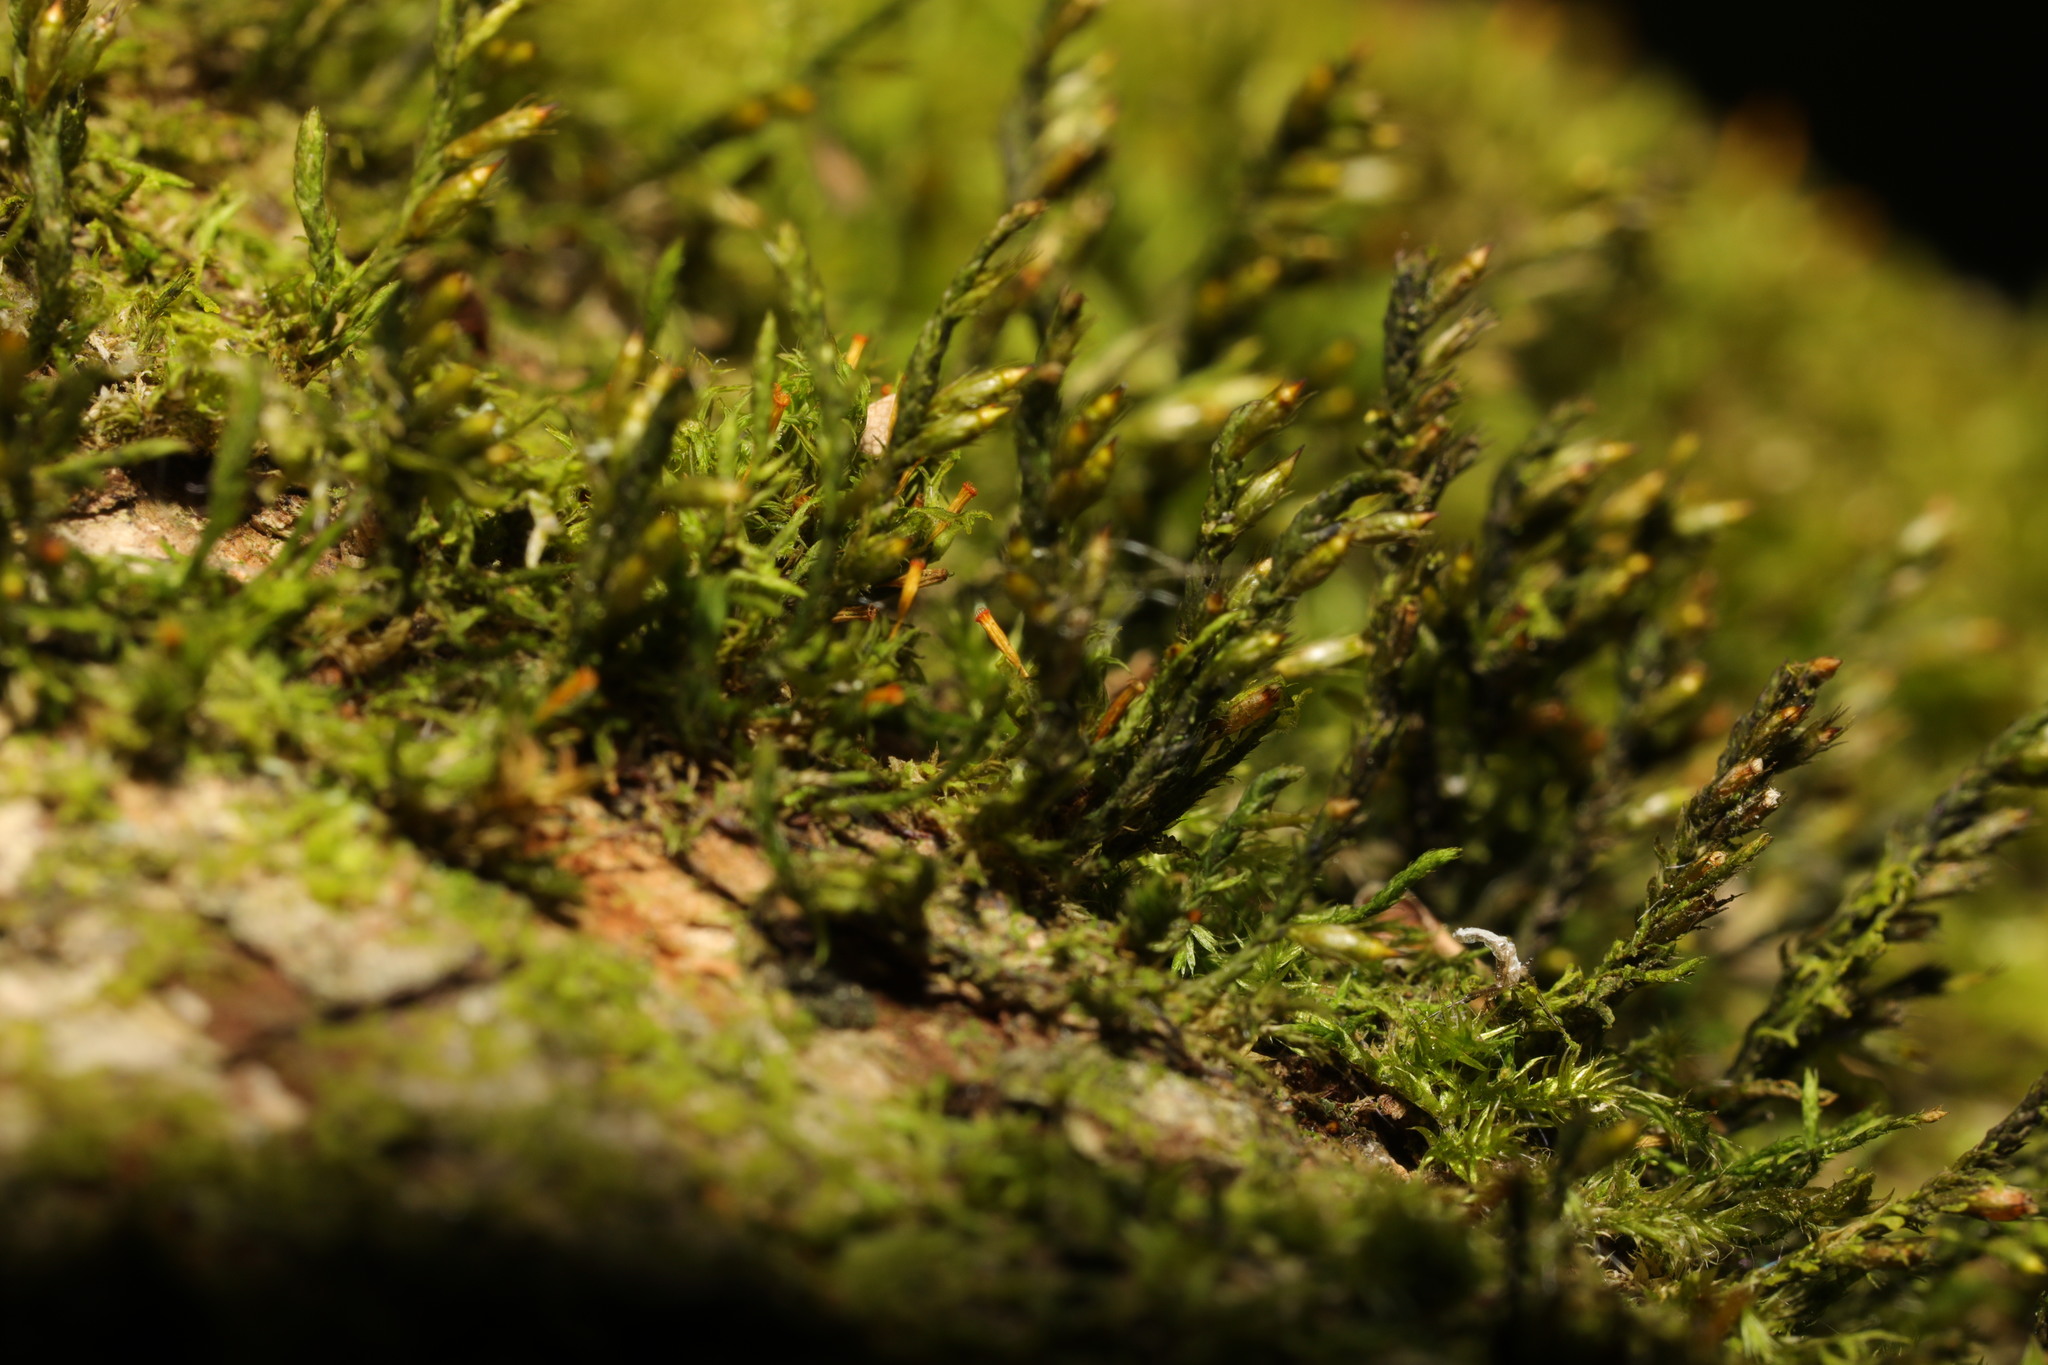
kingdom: Plantae
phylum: Bryophyta
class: Bryopsida
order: Orthotrichales
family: Orthotrichaceae
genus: Orthotrichum
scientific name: Orthotrichum pulchellum
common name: Elegant bristle-moss
